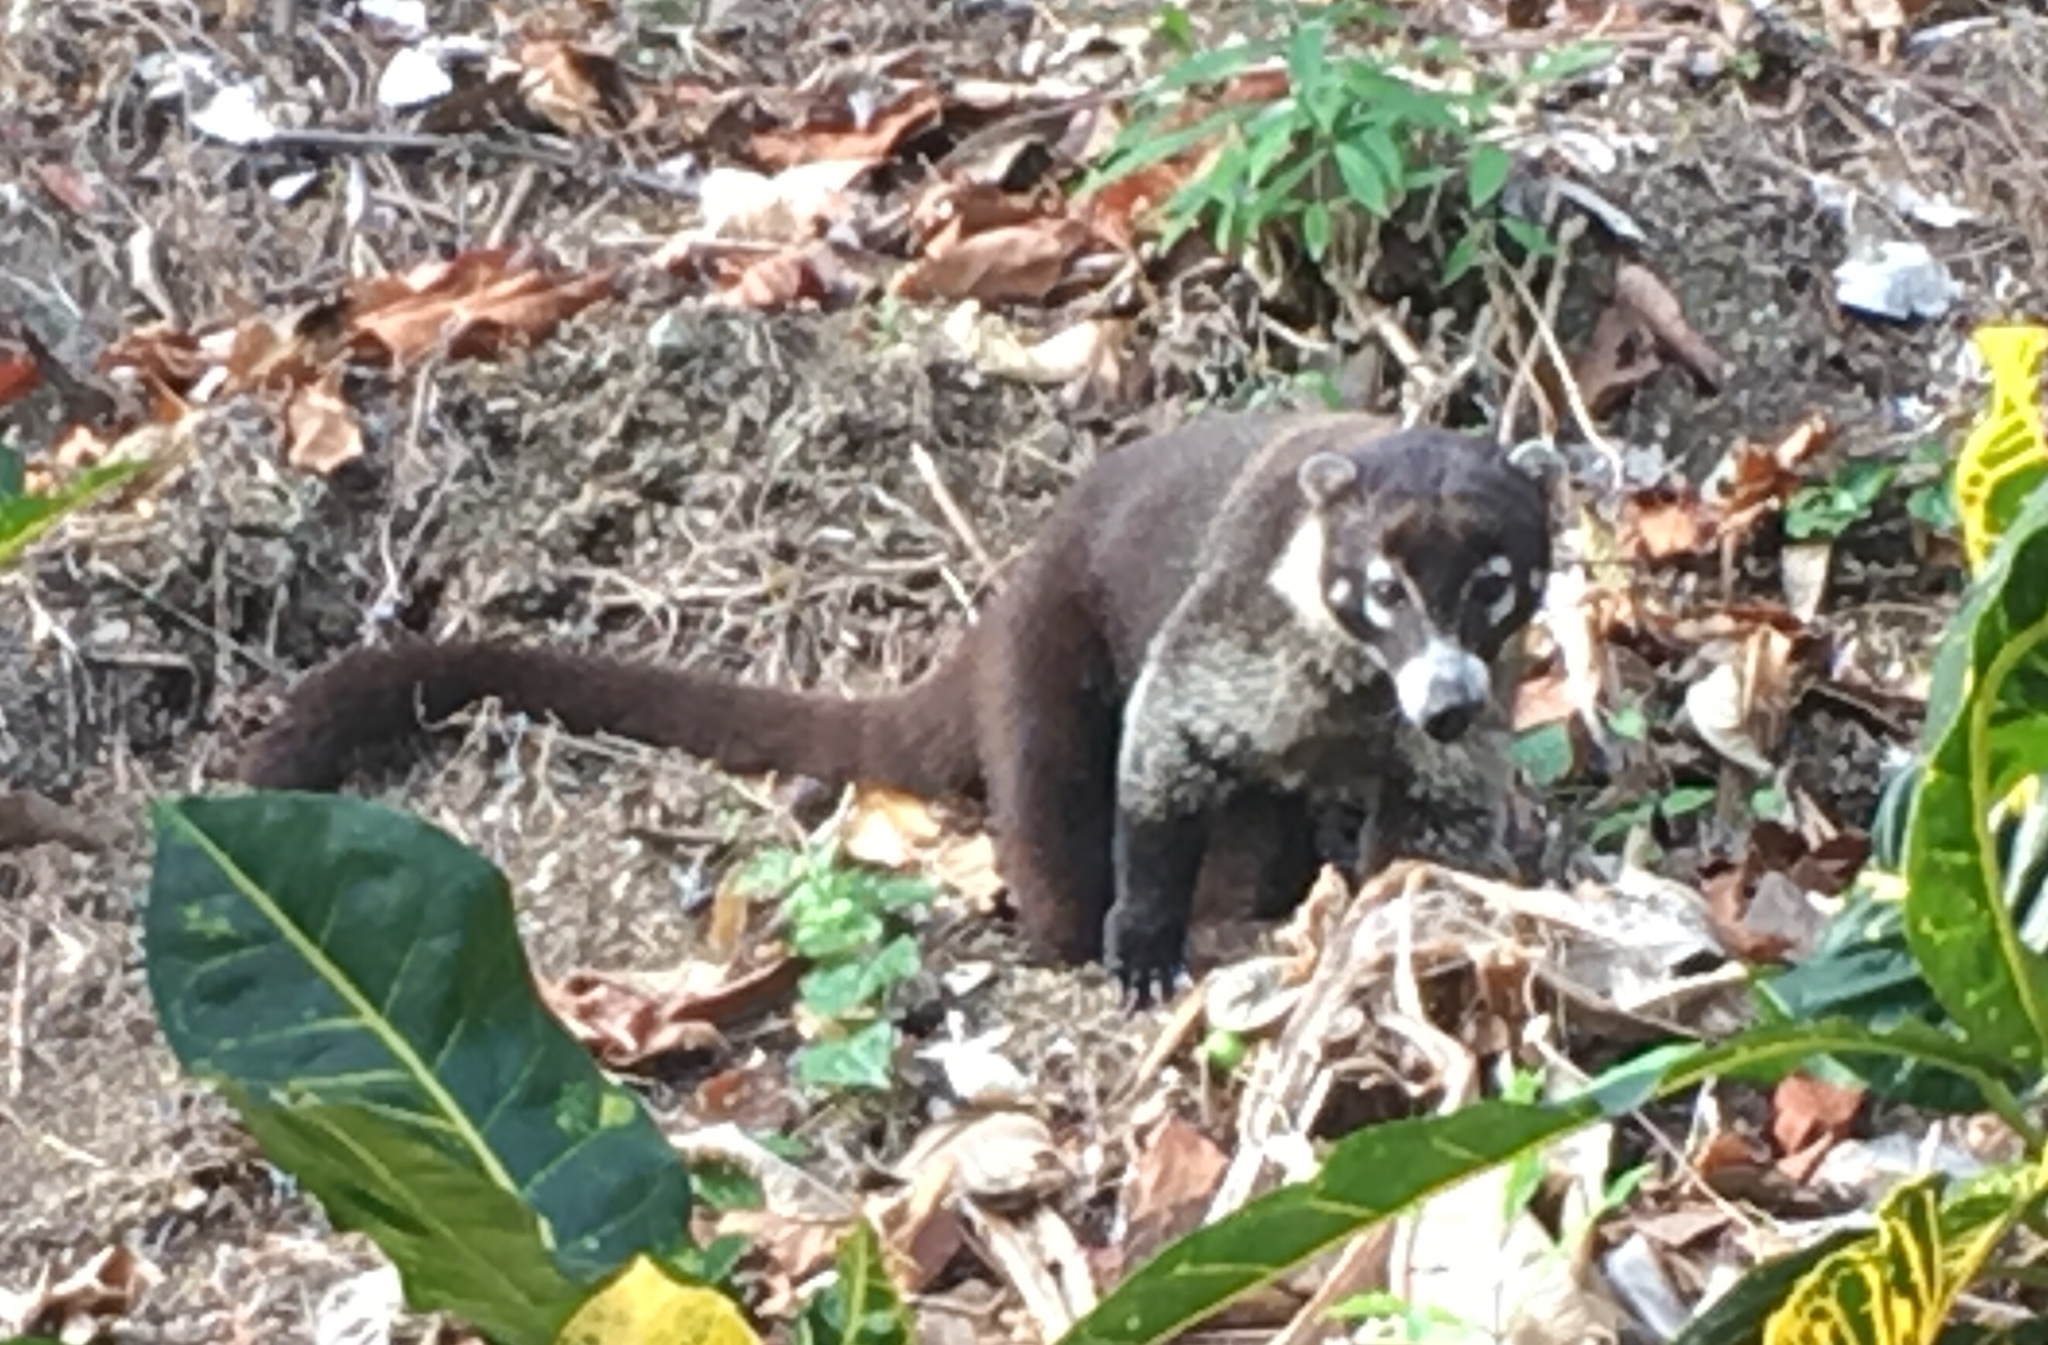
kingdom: Animalia
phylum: Chordata
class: Mammalia
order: Carnivora
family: Procyonidae
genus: Nasua
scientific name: Nasua narica
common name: White-nosed coati
